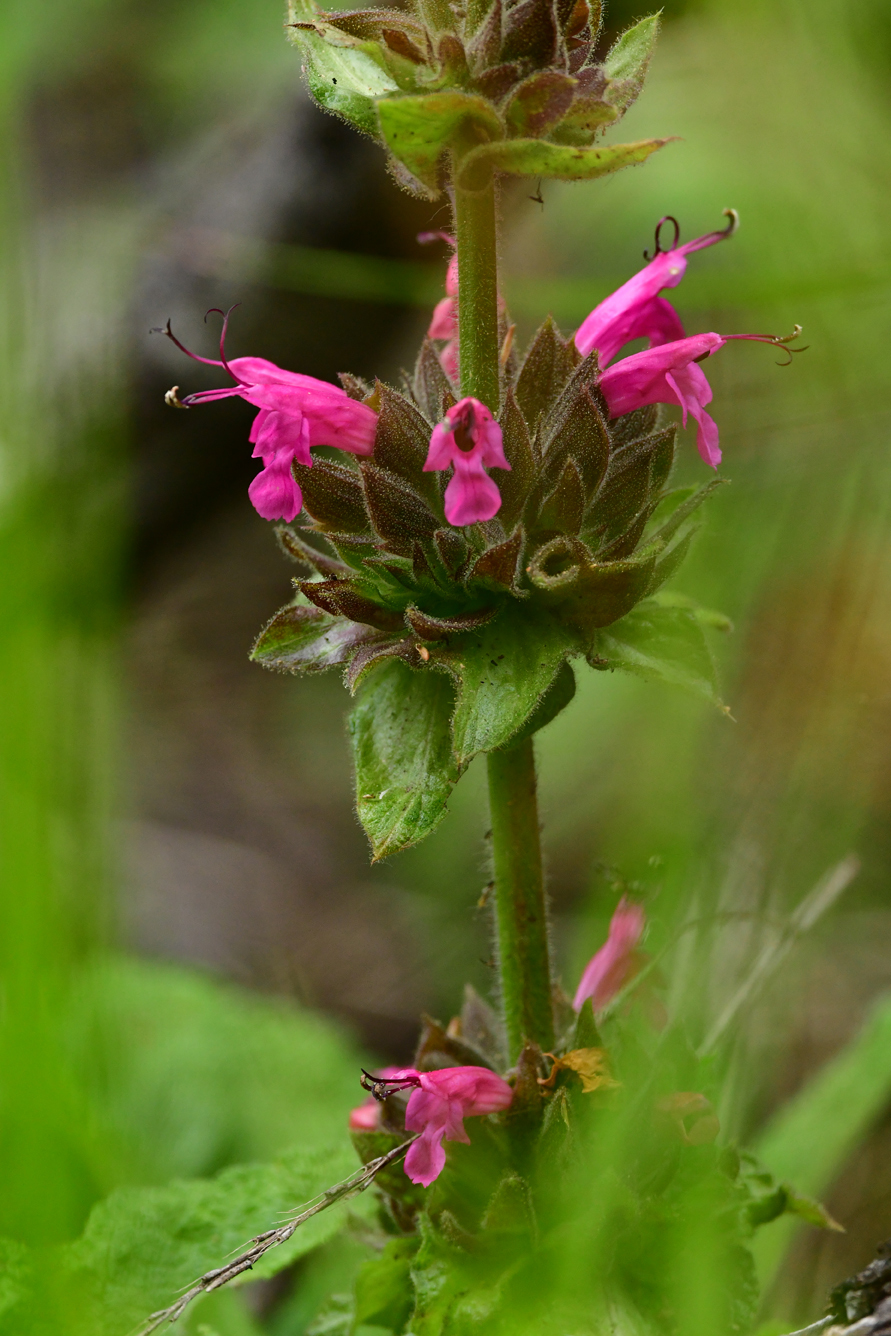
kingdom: Plantae
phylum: Tracheophyta
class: Magnoliopsida
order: Lamiales
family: Lamiaceae
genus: Salvia
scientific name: Salvia spathacea
